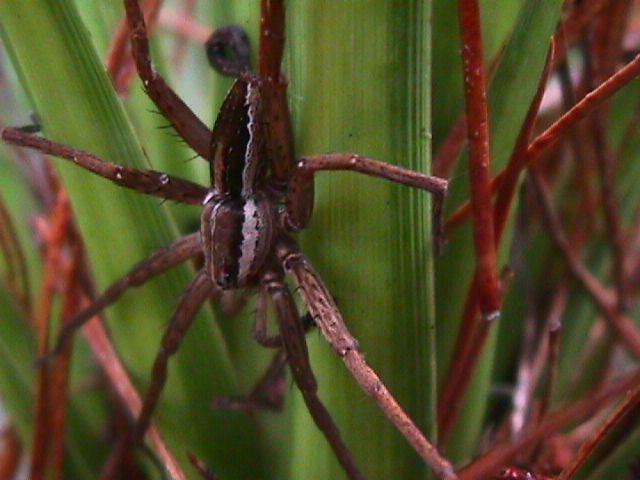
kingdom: Animalia
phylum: Arthropoda
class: Arachnida
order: Araneae
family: Pisauridae
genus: Dolomedes
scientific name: Dolomedes minor
